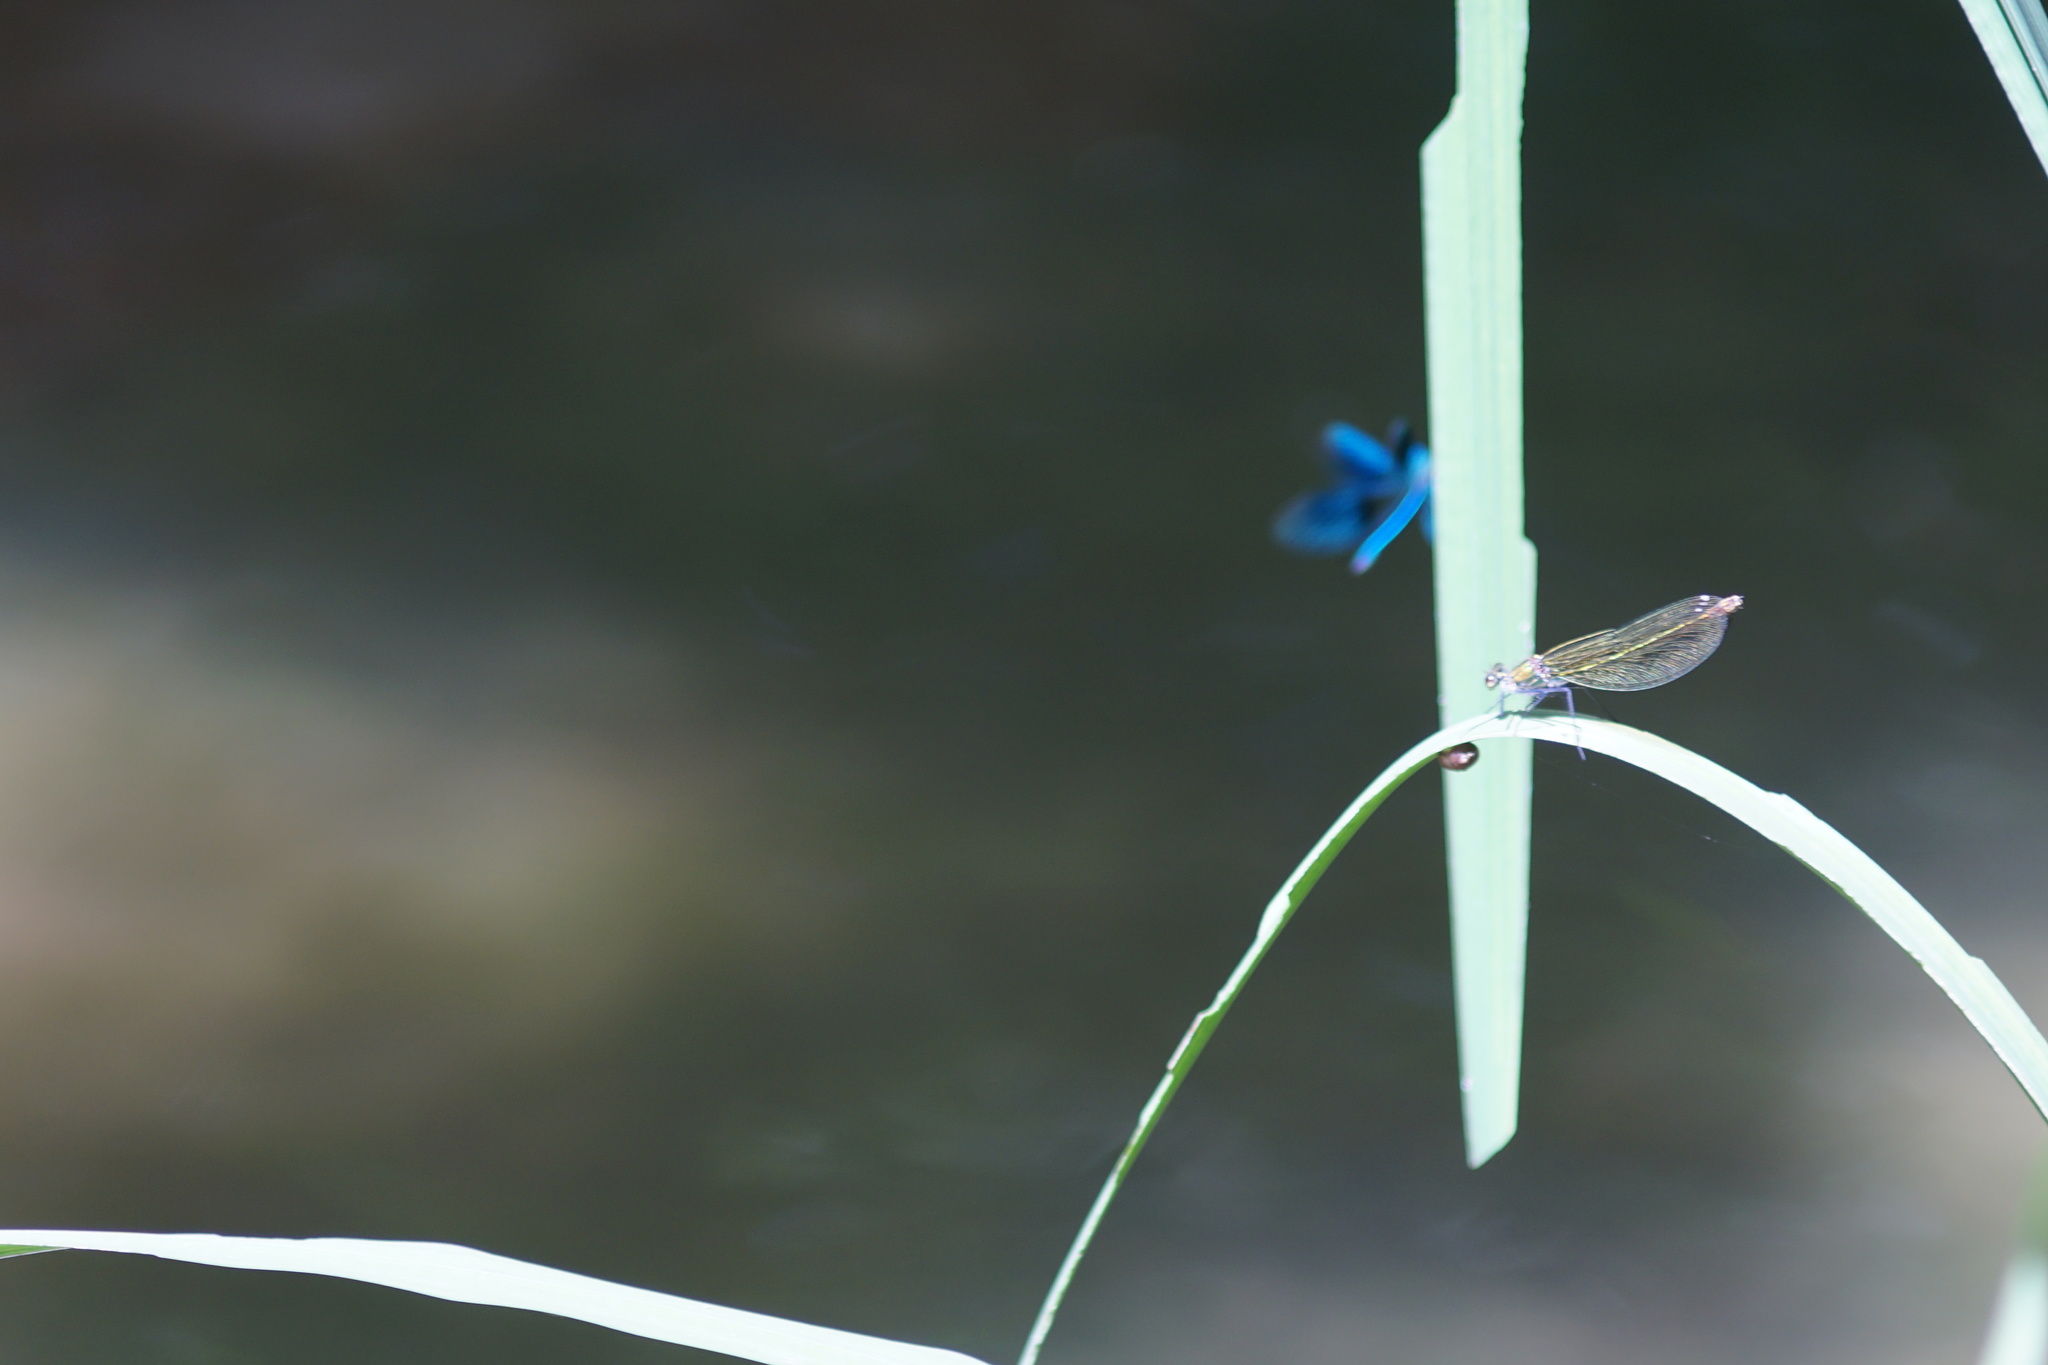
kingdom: Animalia
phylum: Arthropoda
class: Insecta
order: Odonata
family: Calopterygidae
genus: Calopteryx
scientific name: Calopteryx splendens
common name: Banded demoiselle
